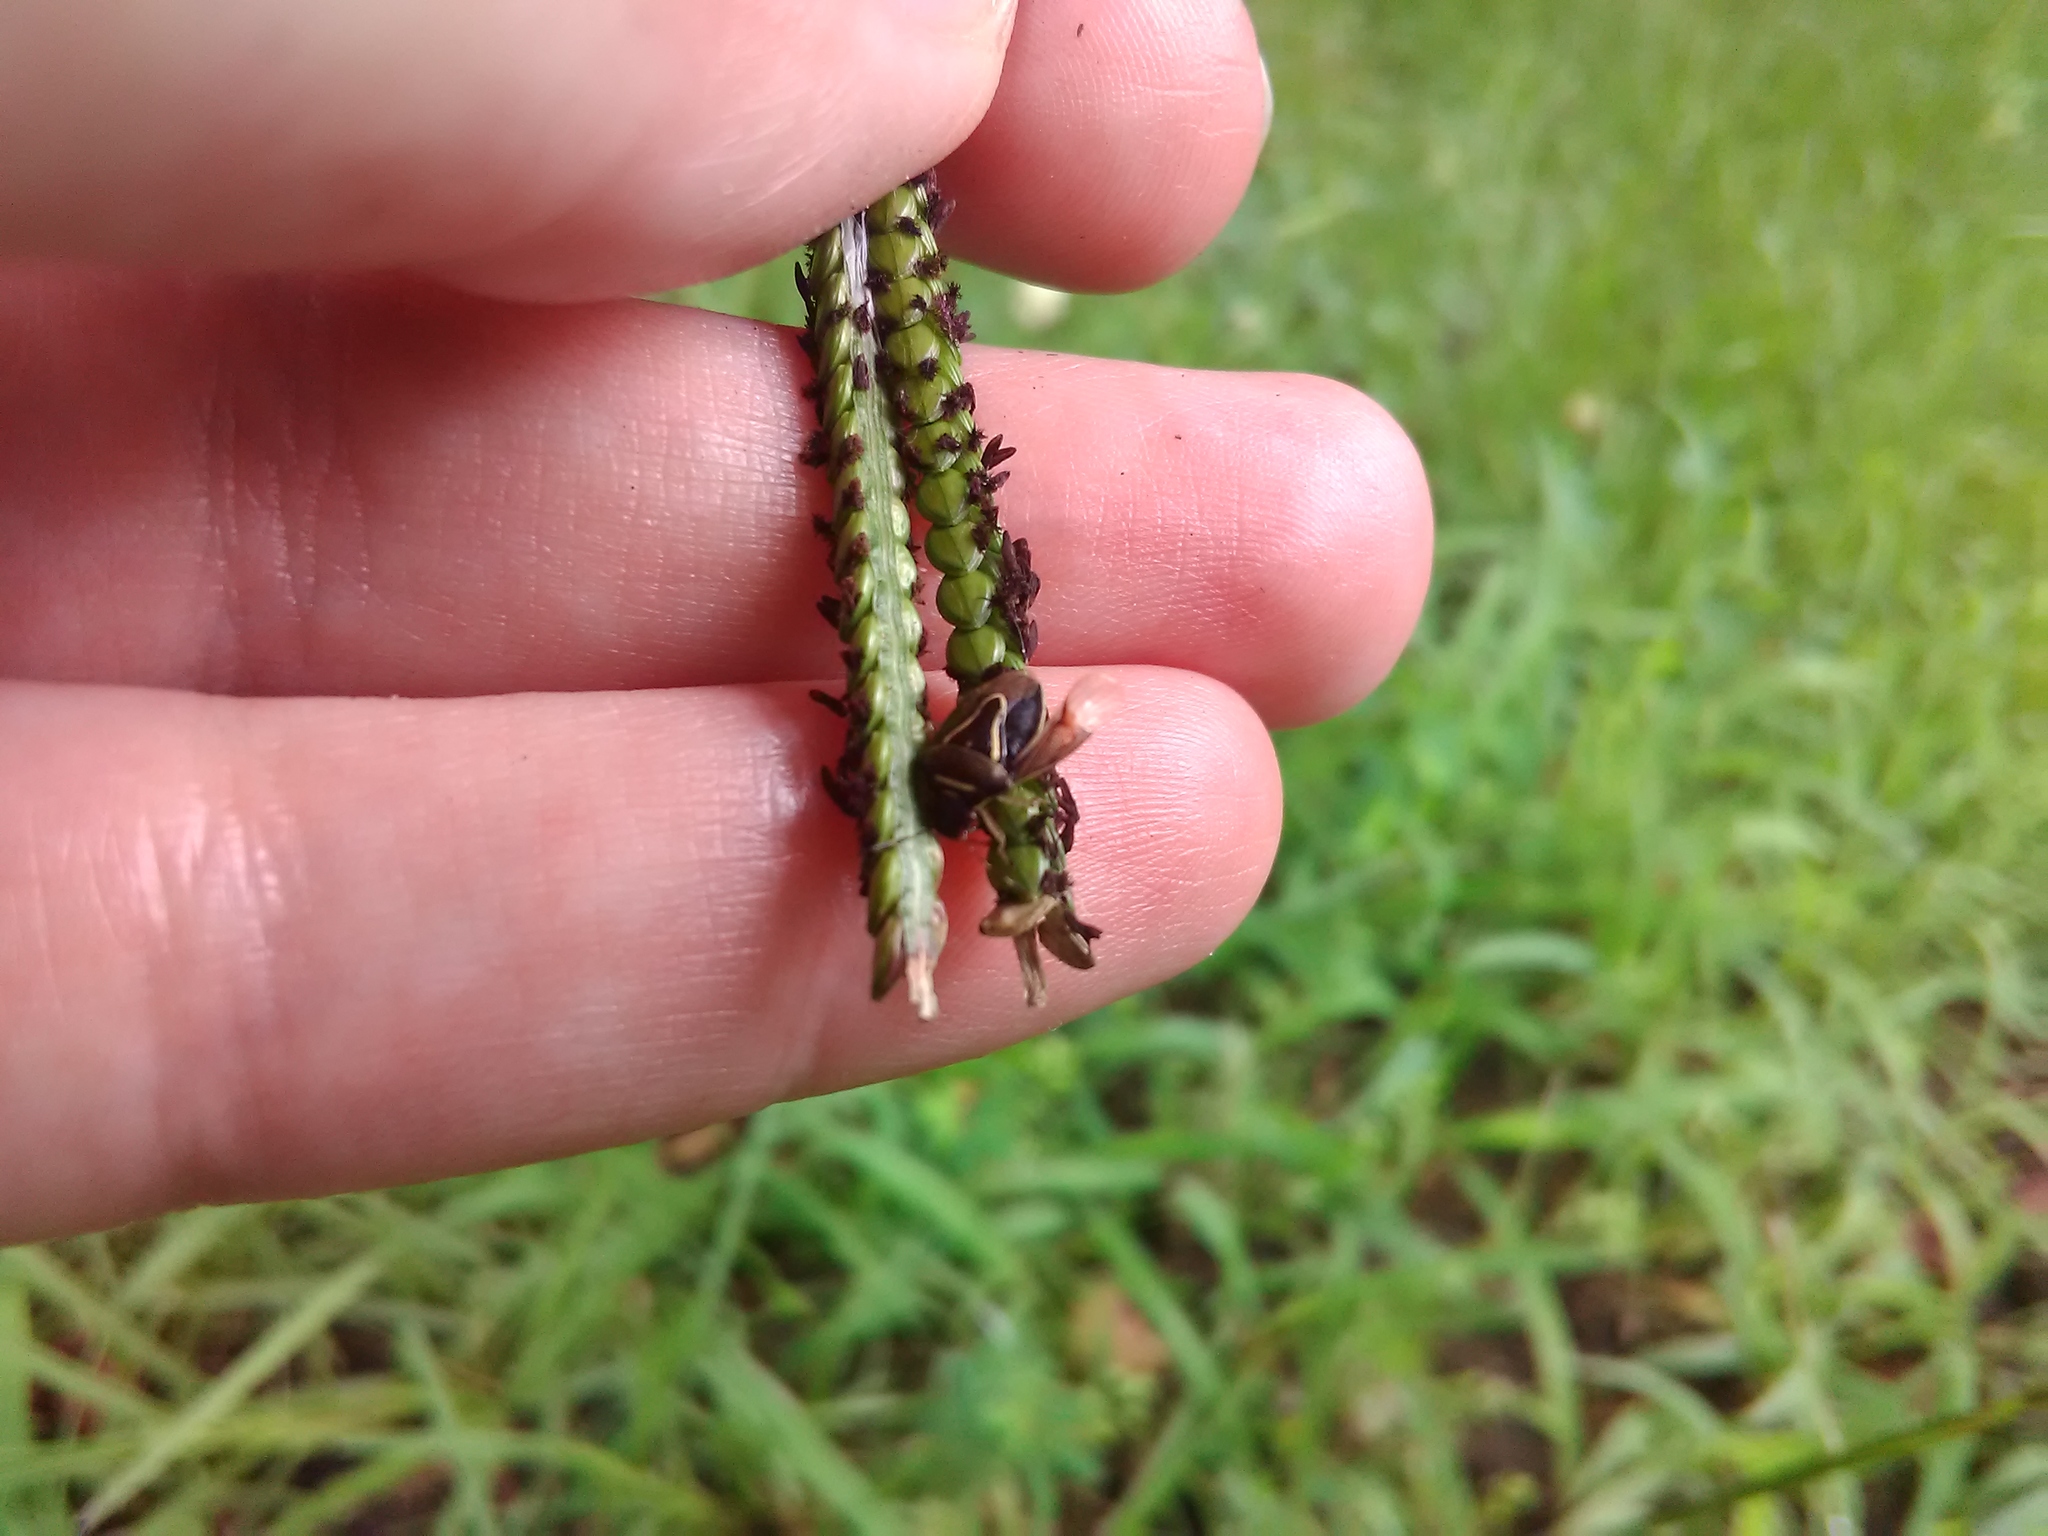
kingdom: Animalia
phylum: Arthropoda
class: Insecta
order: Hemiptera
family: Pentatomidae
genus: Mormidea
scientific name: Mormidea lugens
